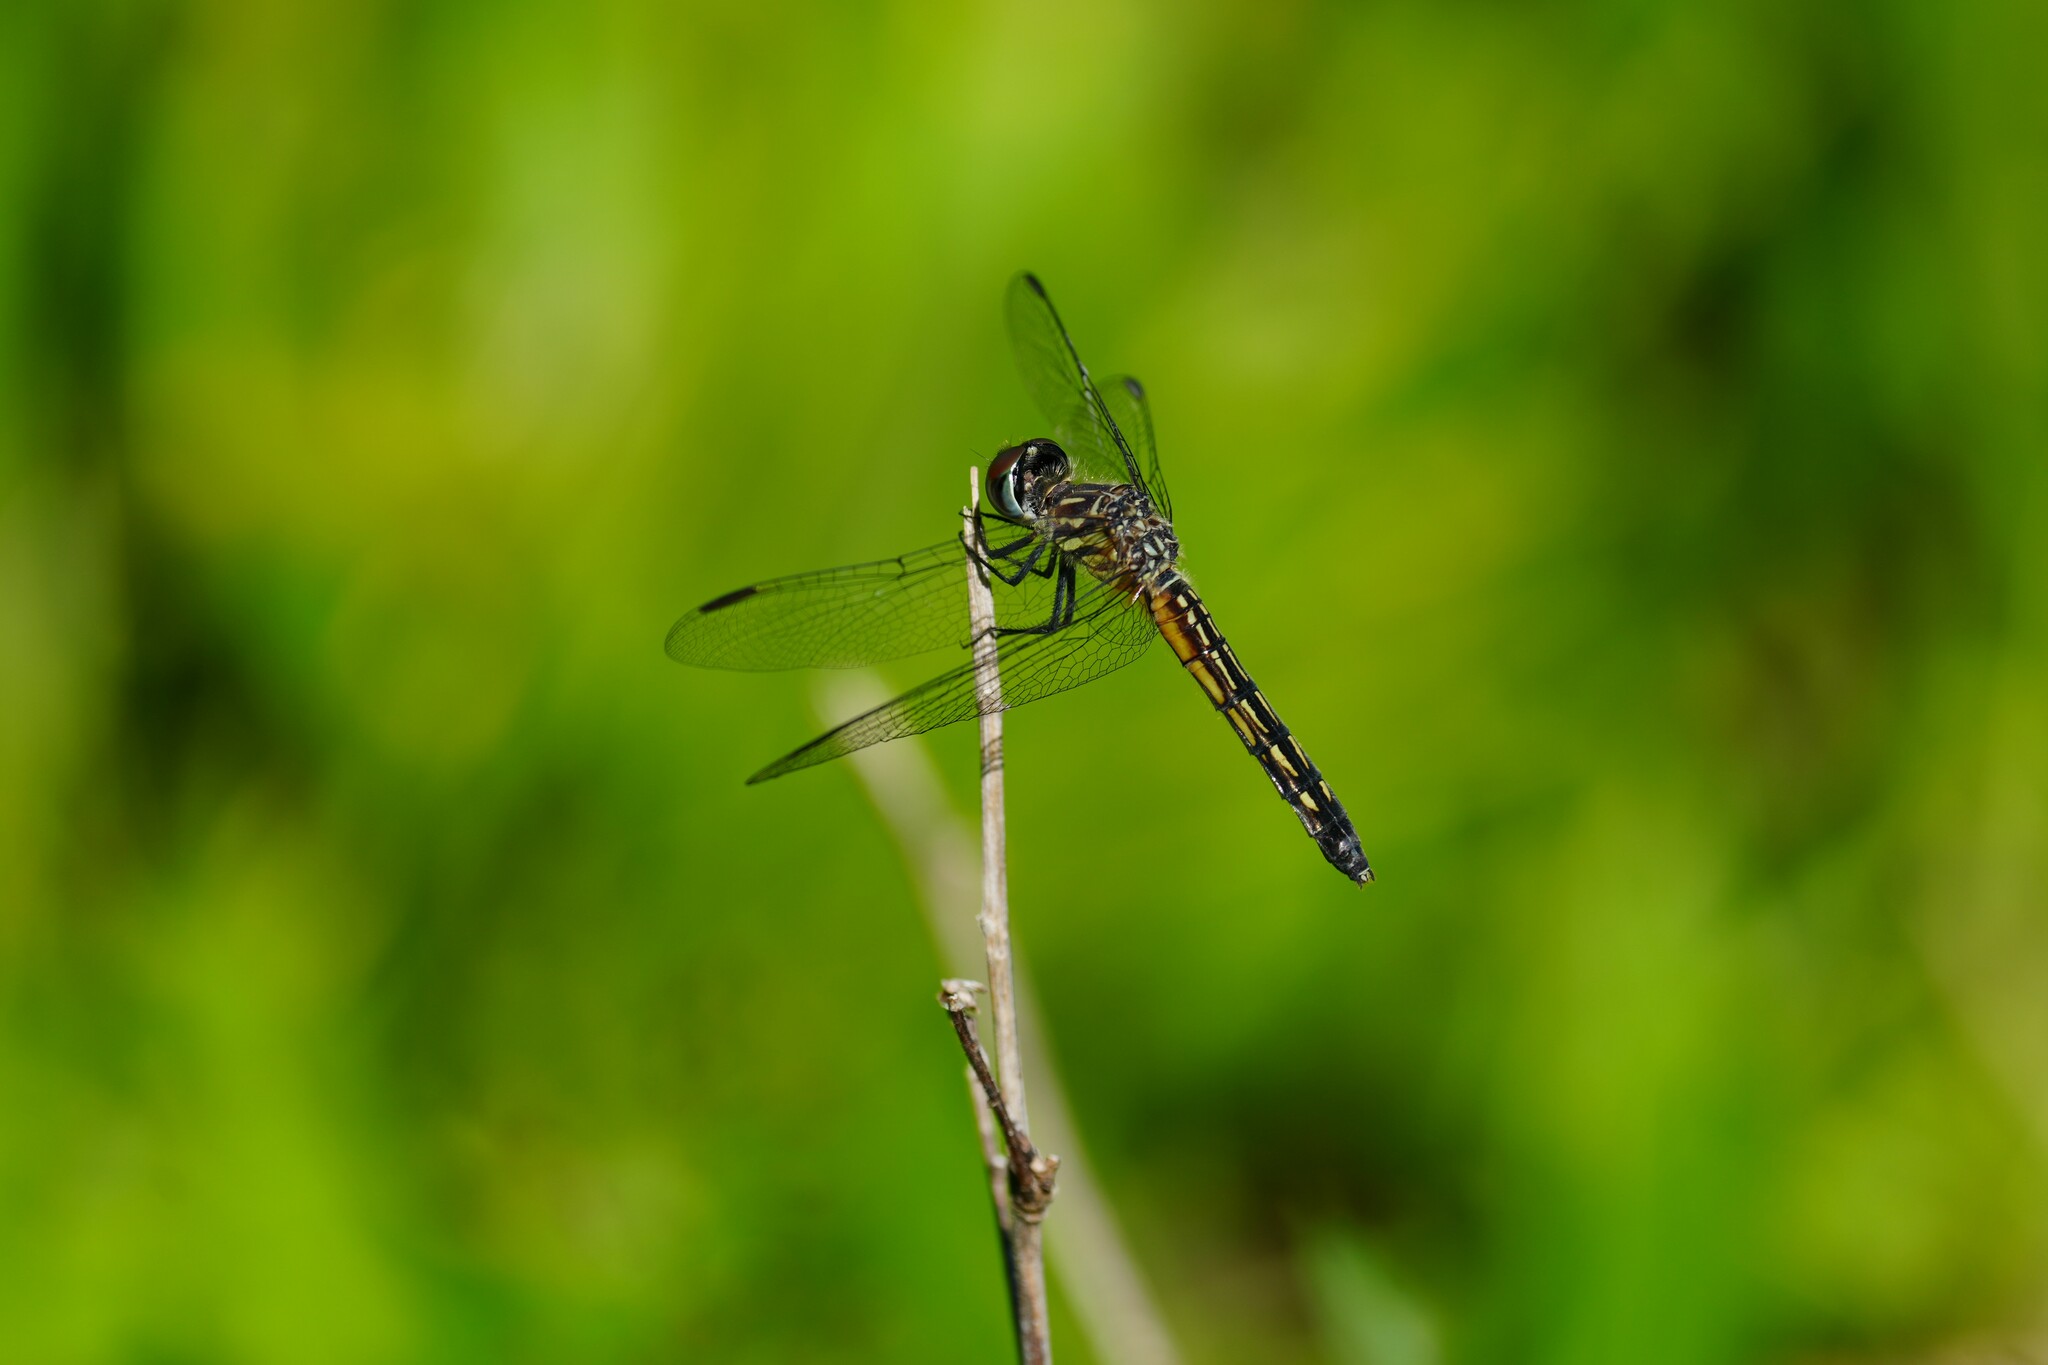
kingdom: Animalia
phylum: Arthropoda
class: Insecta
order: Odonata
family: Libellulidae
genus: Pachydiplax
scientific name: Pachydiplax longipennis
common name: Blue dasher
